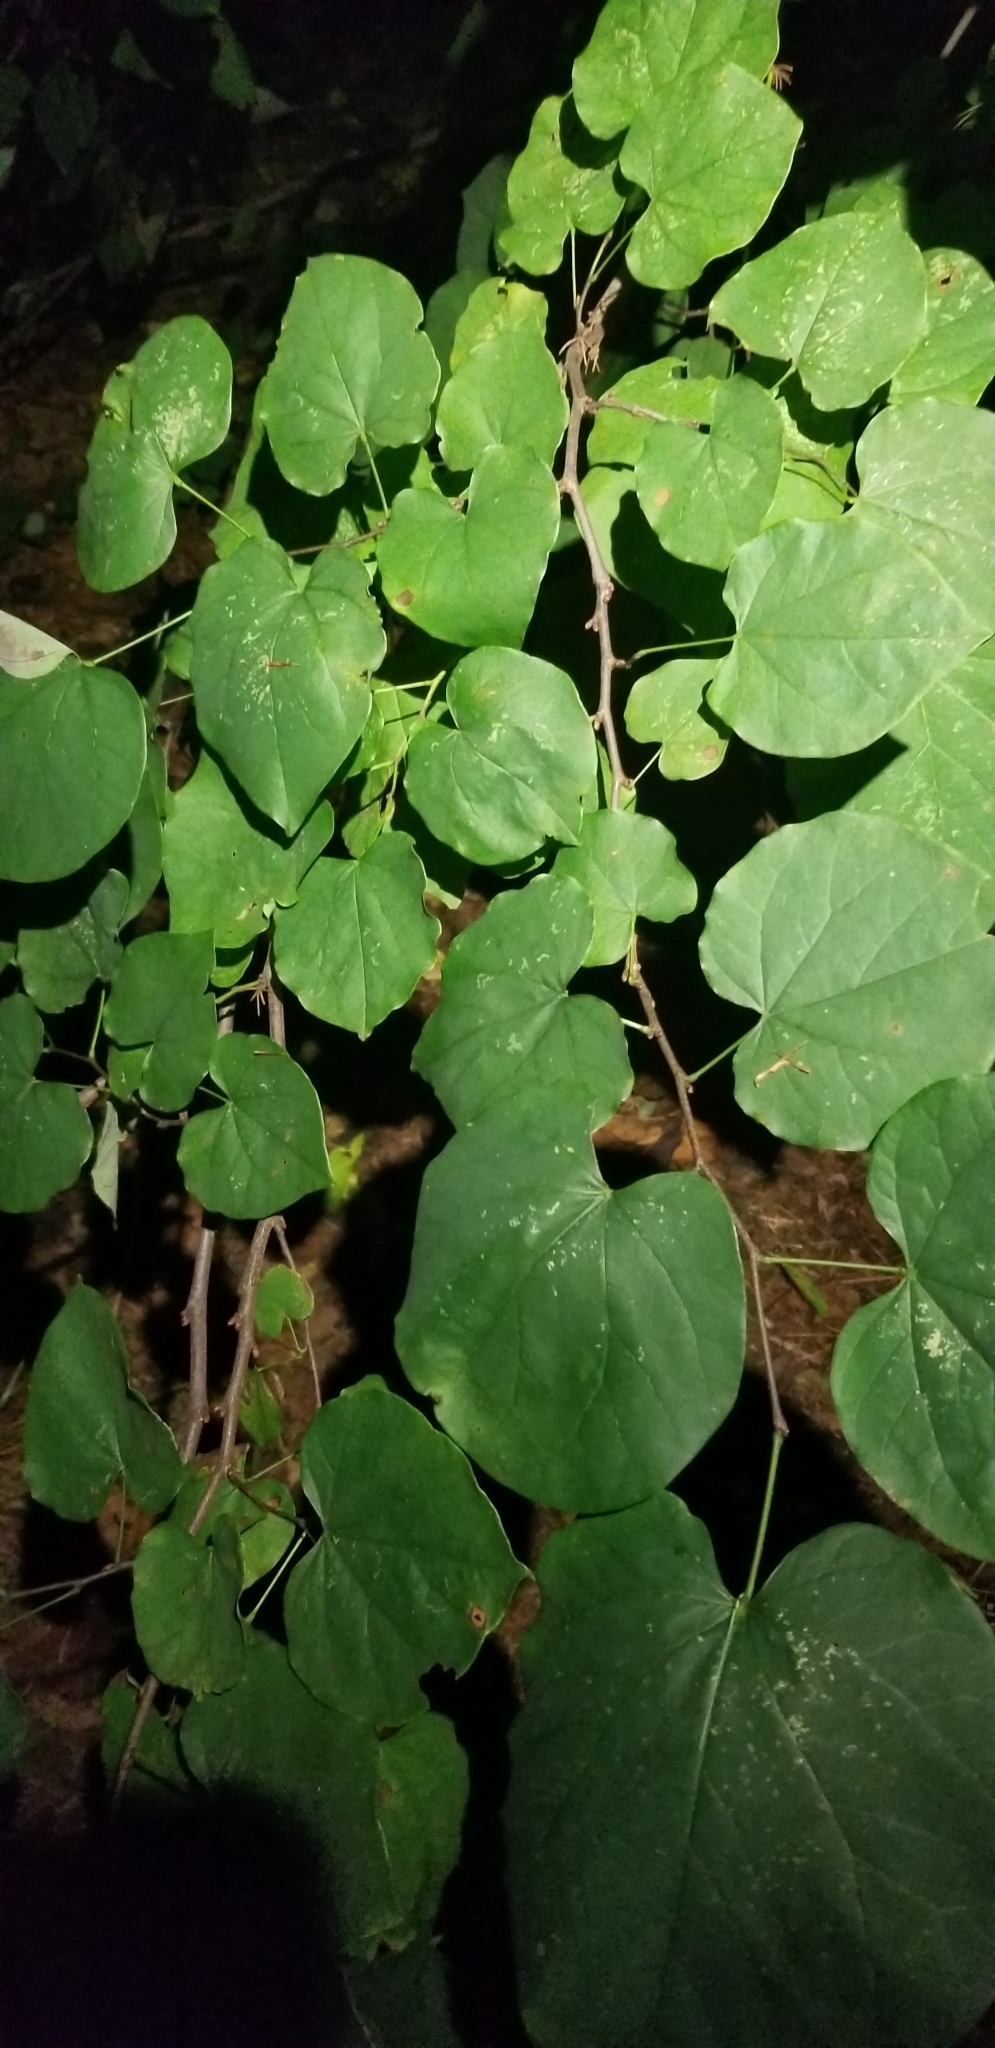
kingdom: Plantae
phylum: Tracheophyta
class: Magnoliopsida
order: Fabales
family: Fabaceae
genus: Cercis
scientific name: Cercis canadensis
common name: Eastern redbud
